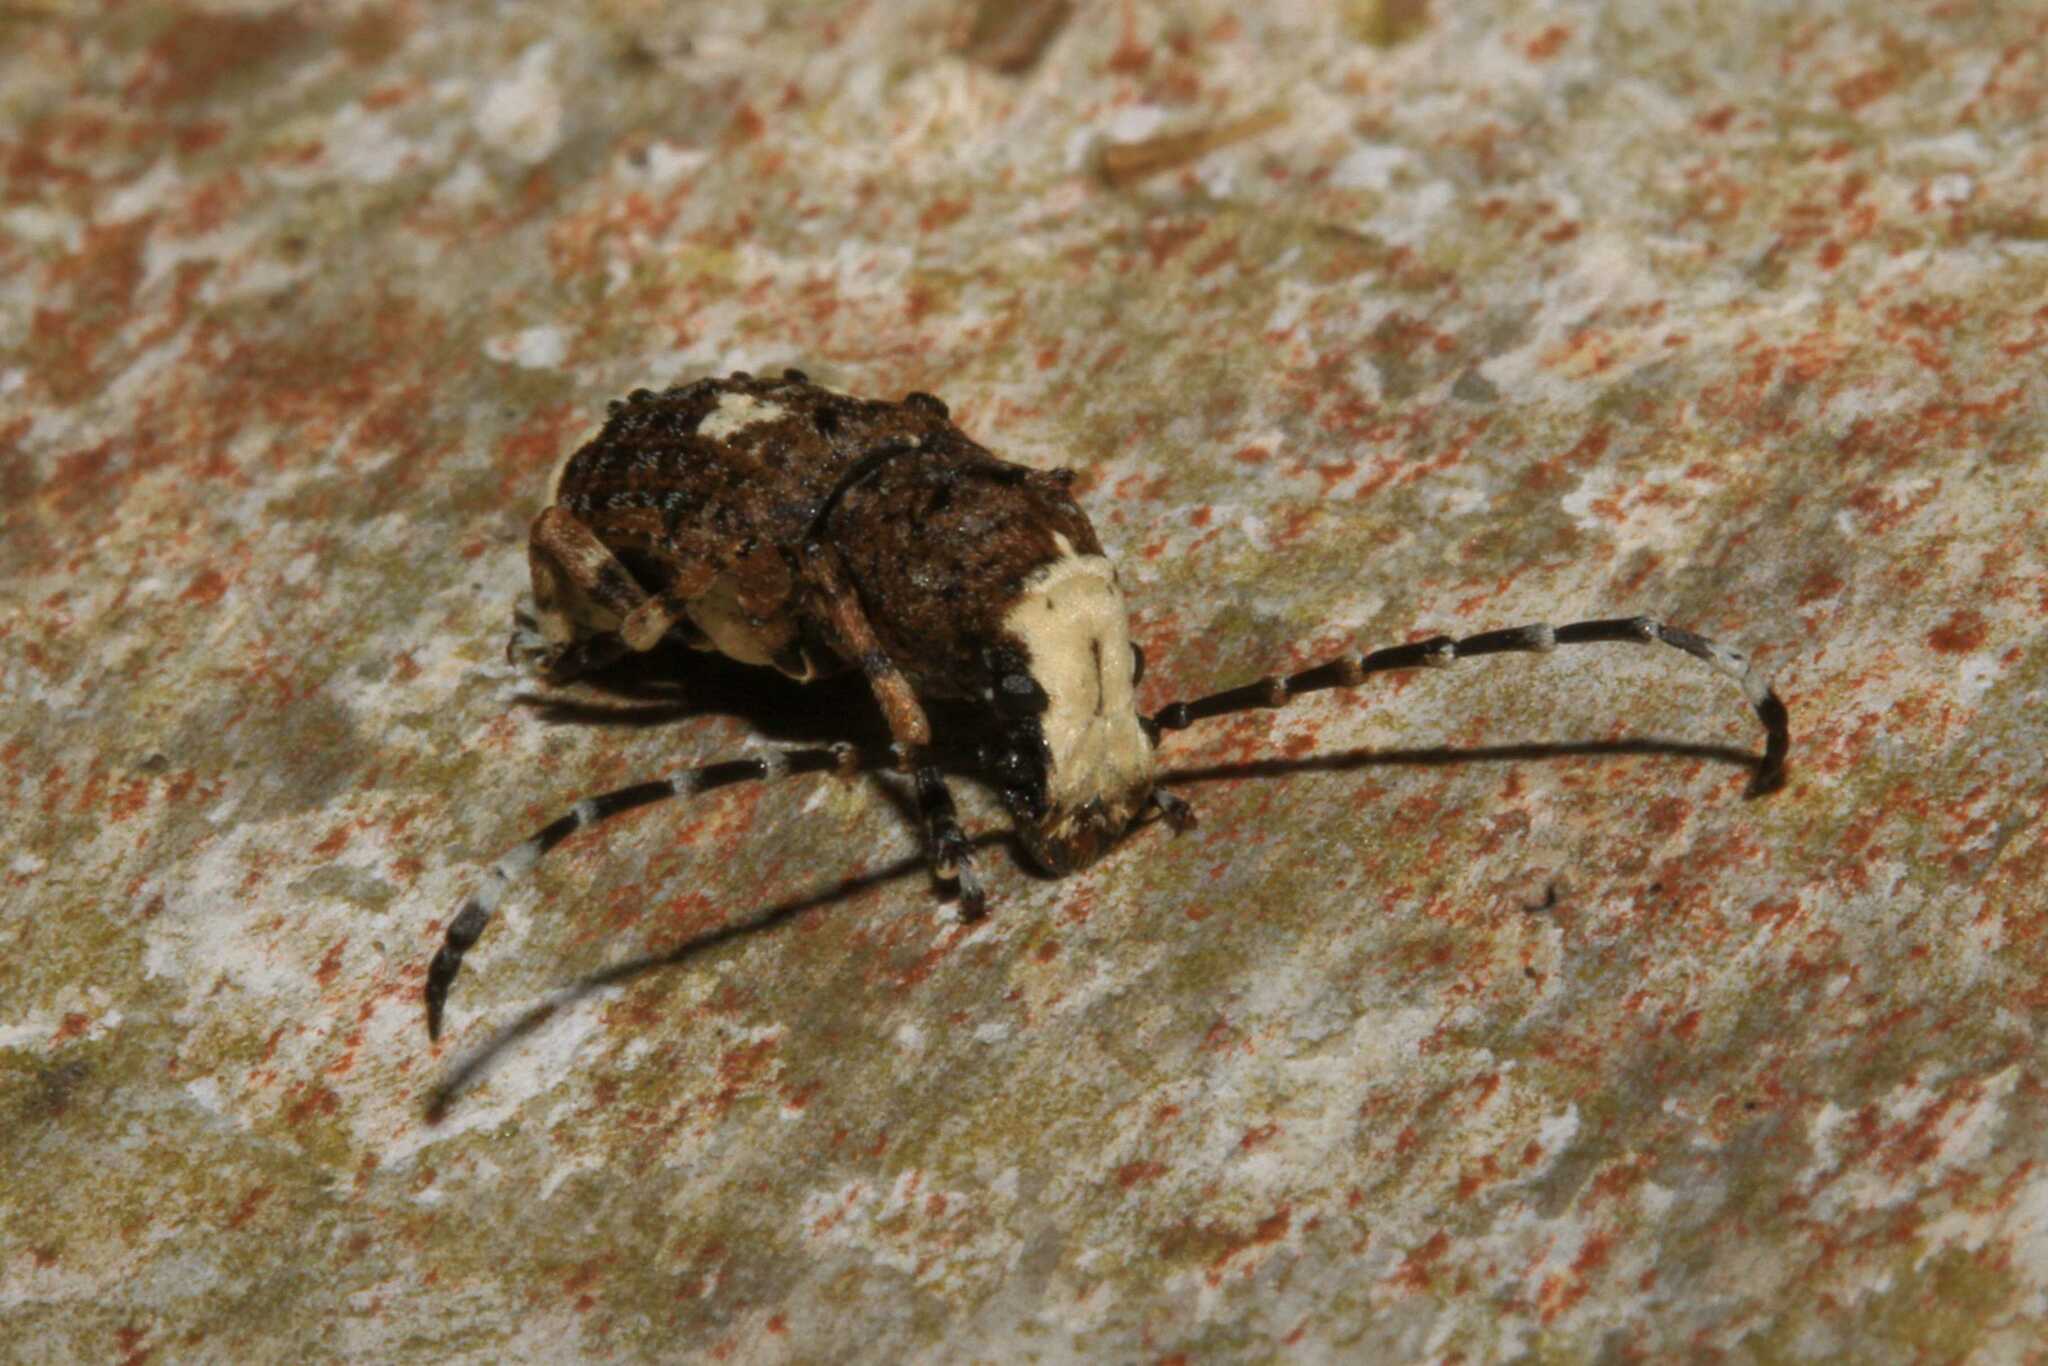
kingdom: Animalia
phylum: Arthropoda
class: Insecta
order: Coleoptera
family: Anthribidae
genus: Platystomos
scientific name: Platystomos albinus
